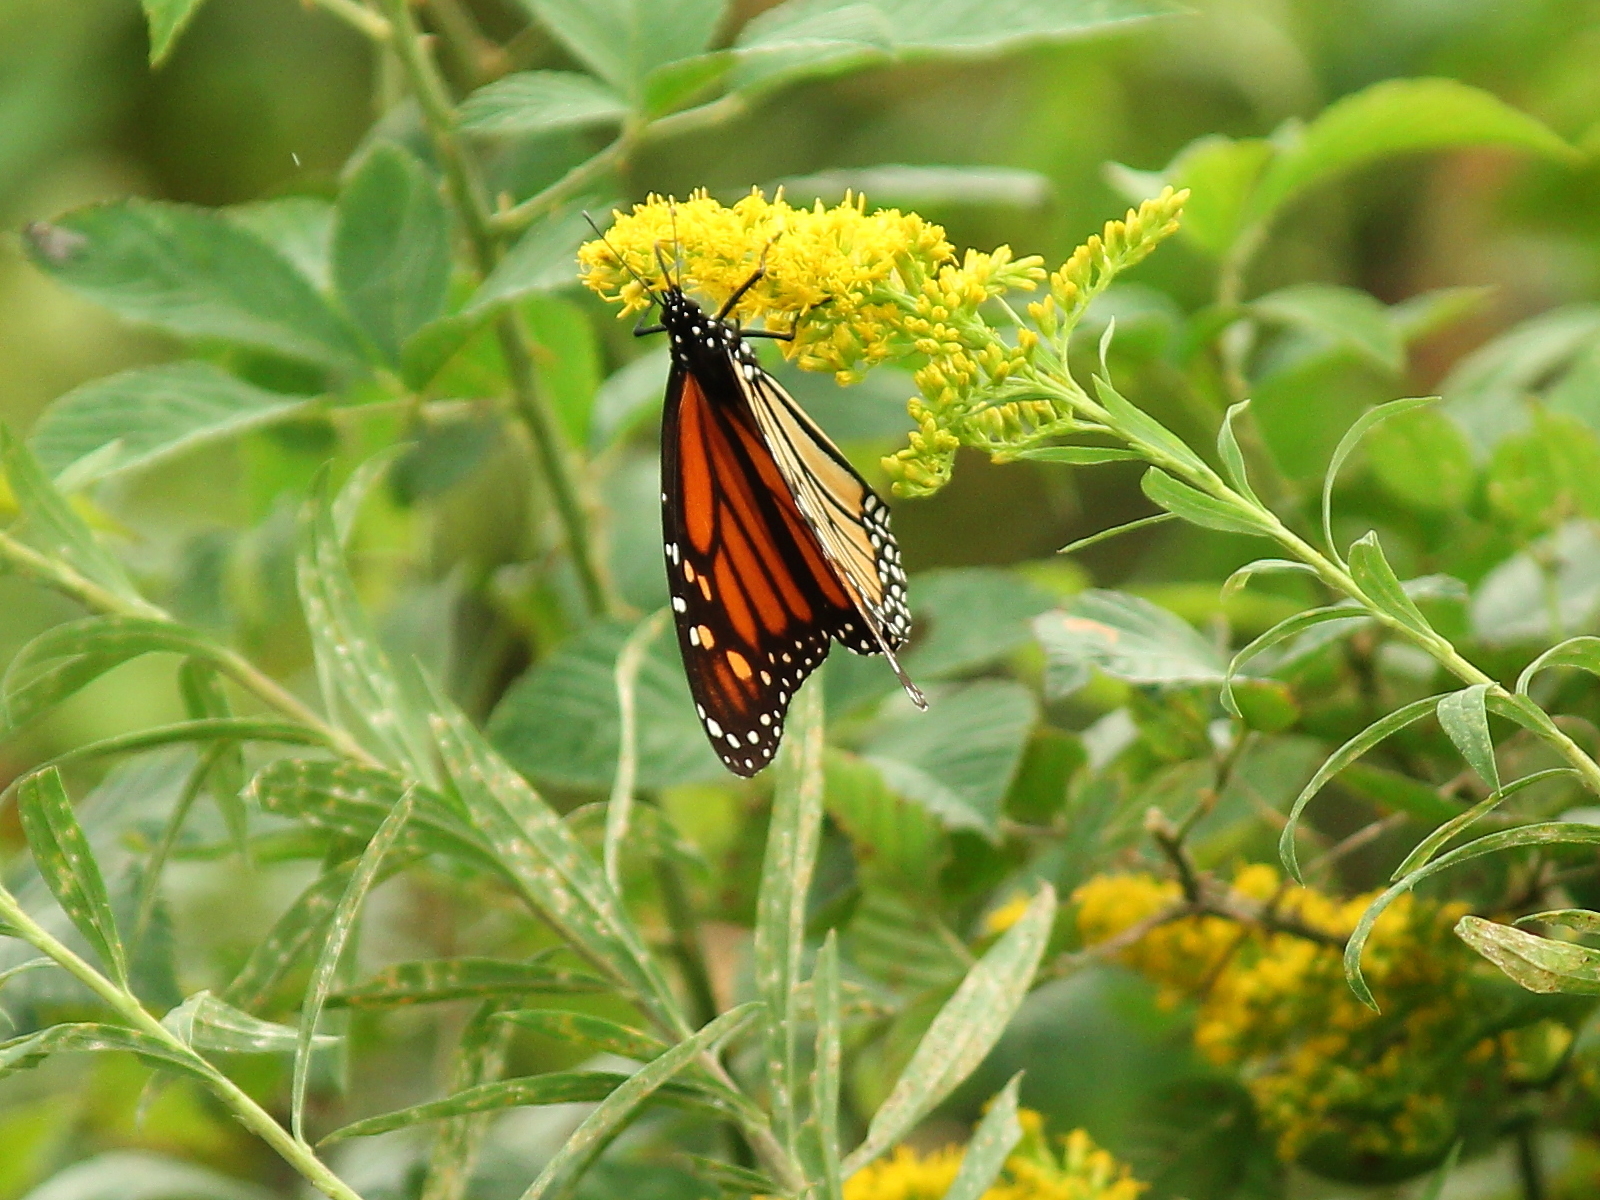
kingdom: Animalia
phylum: Arthropoda
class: Insecta
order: Lepidoptera
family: Nymphalidae
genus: Danaus
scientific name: Danaus plexippus
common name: Monarch
